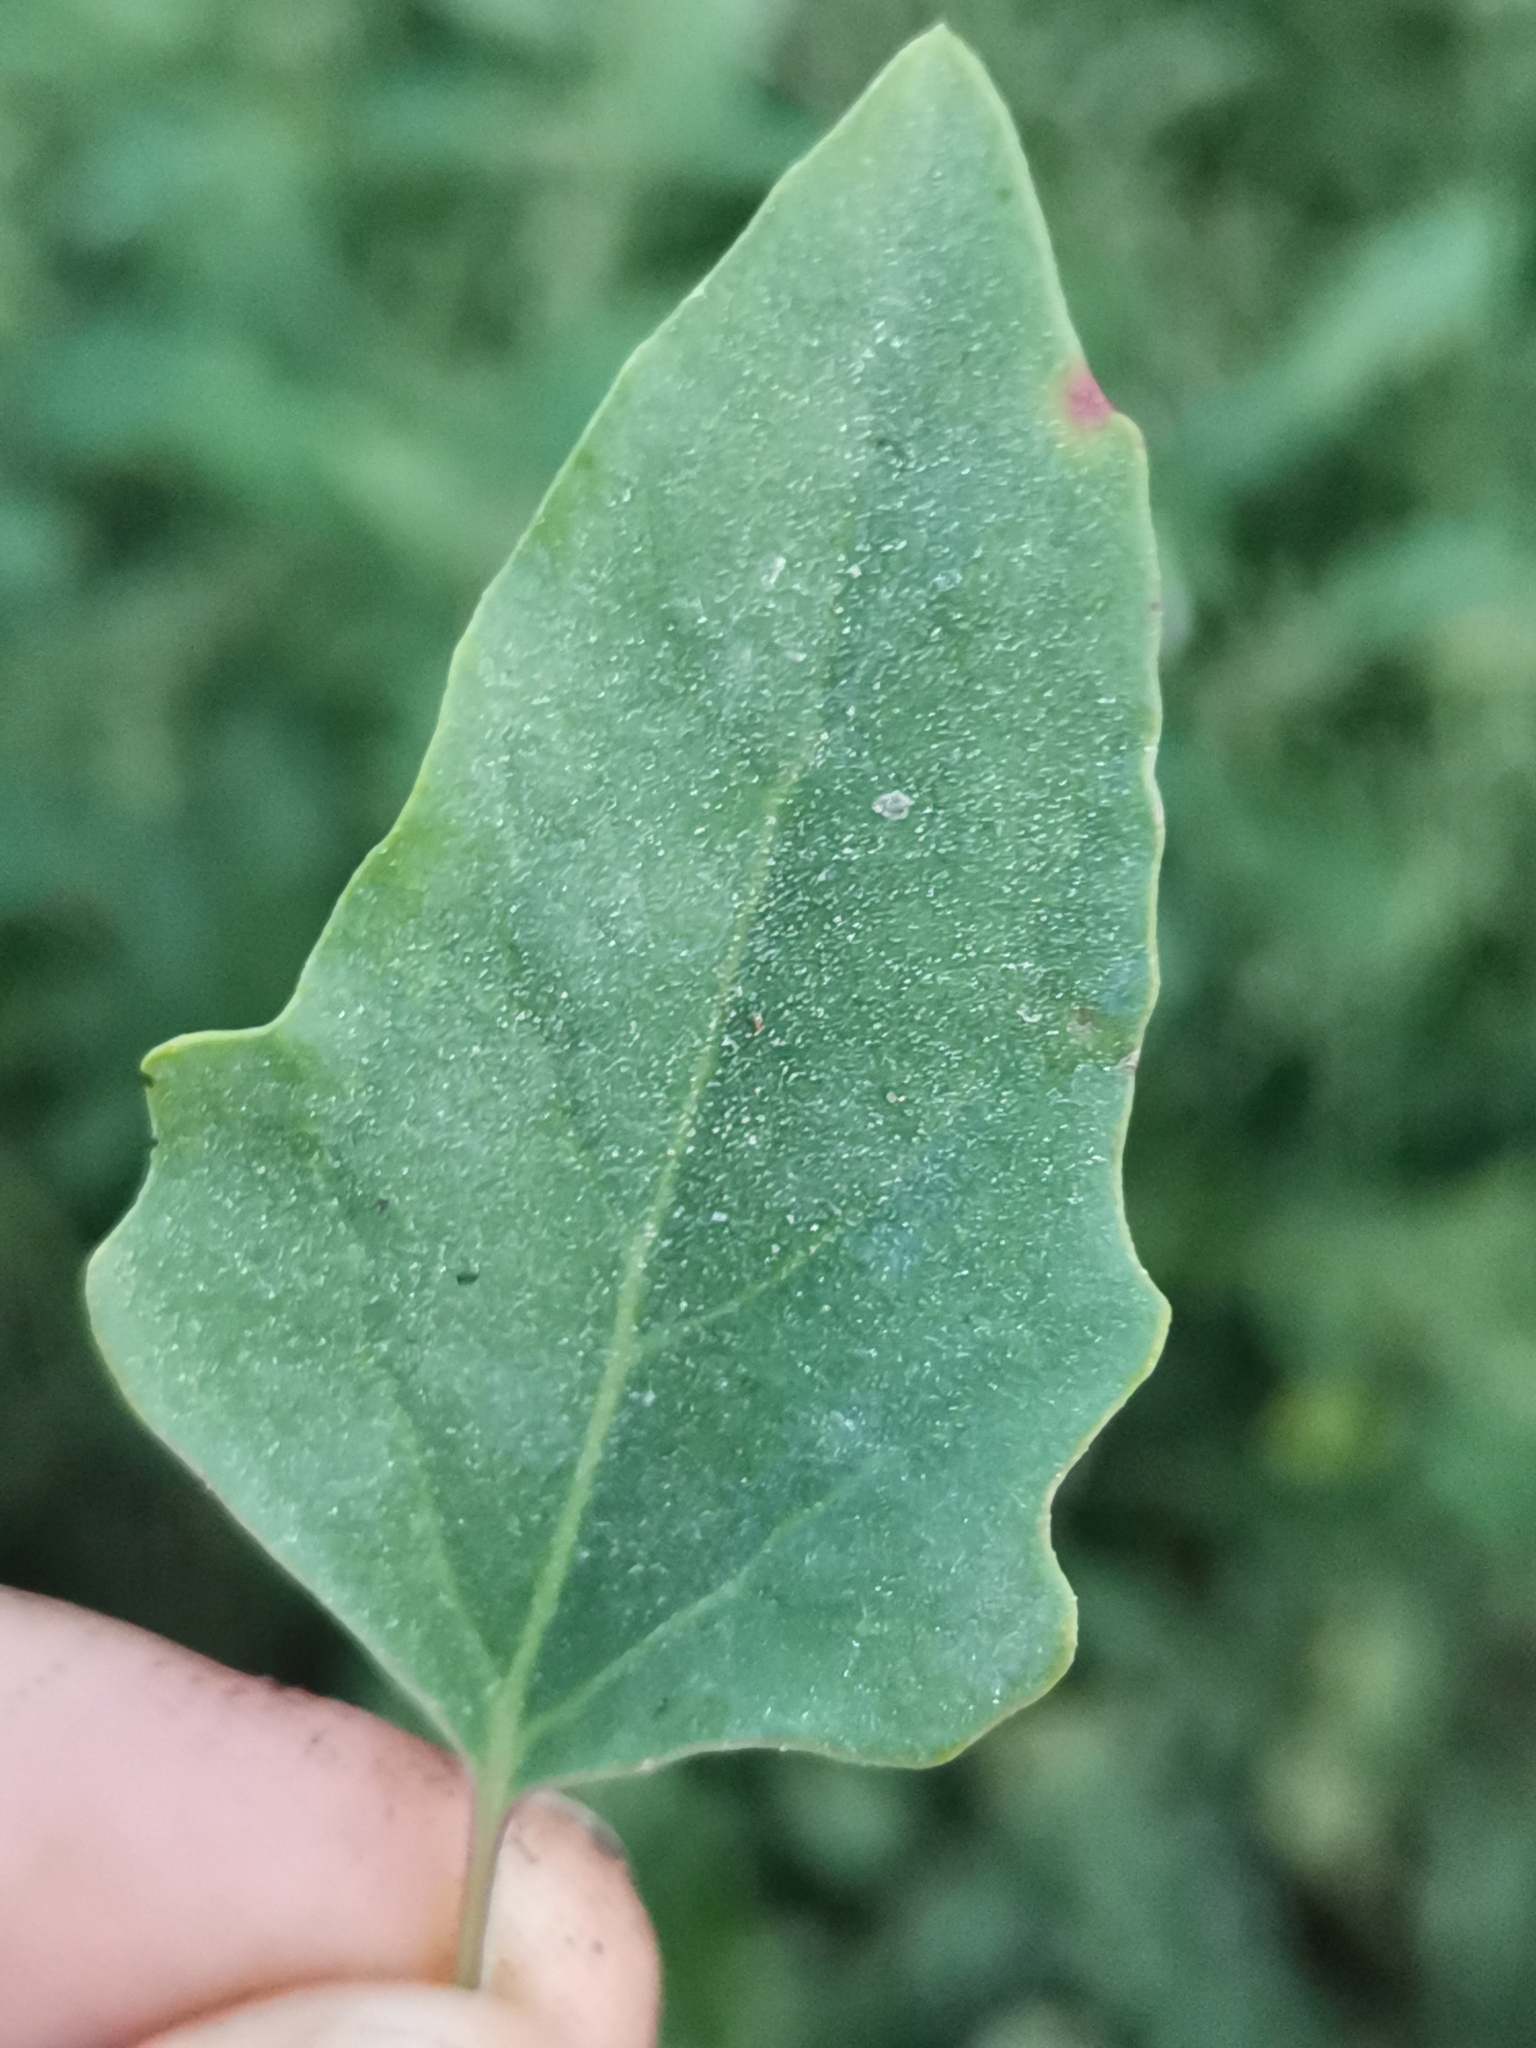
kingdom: Plantae
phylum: Tracheophyta
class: Magnoliopsida
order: Caryophyllales
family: Amaranthaceae
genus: Chenopodium
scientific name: Chenopodium album
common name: Fat-hen
